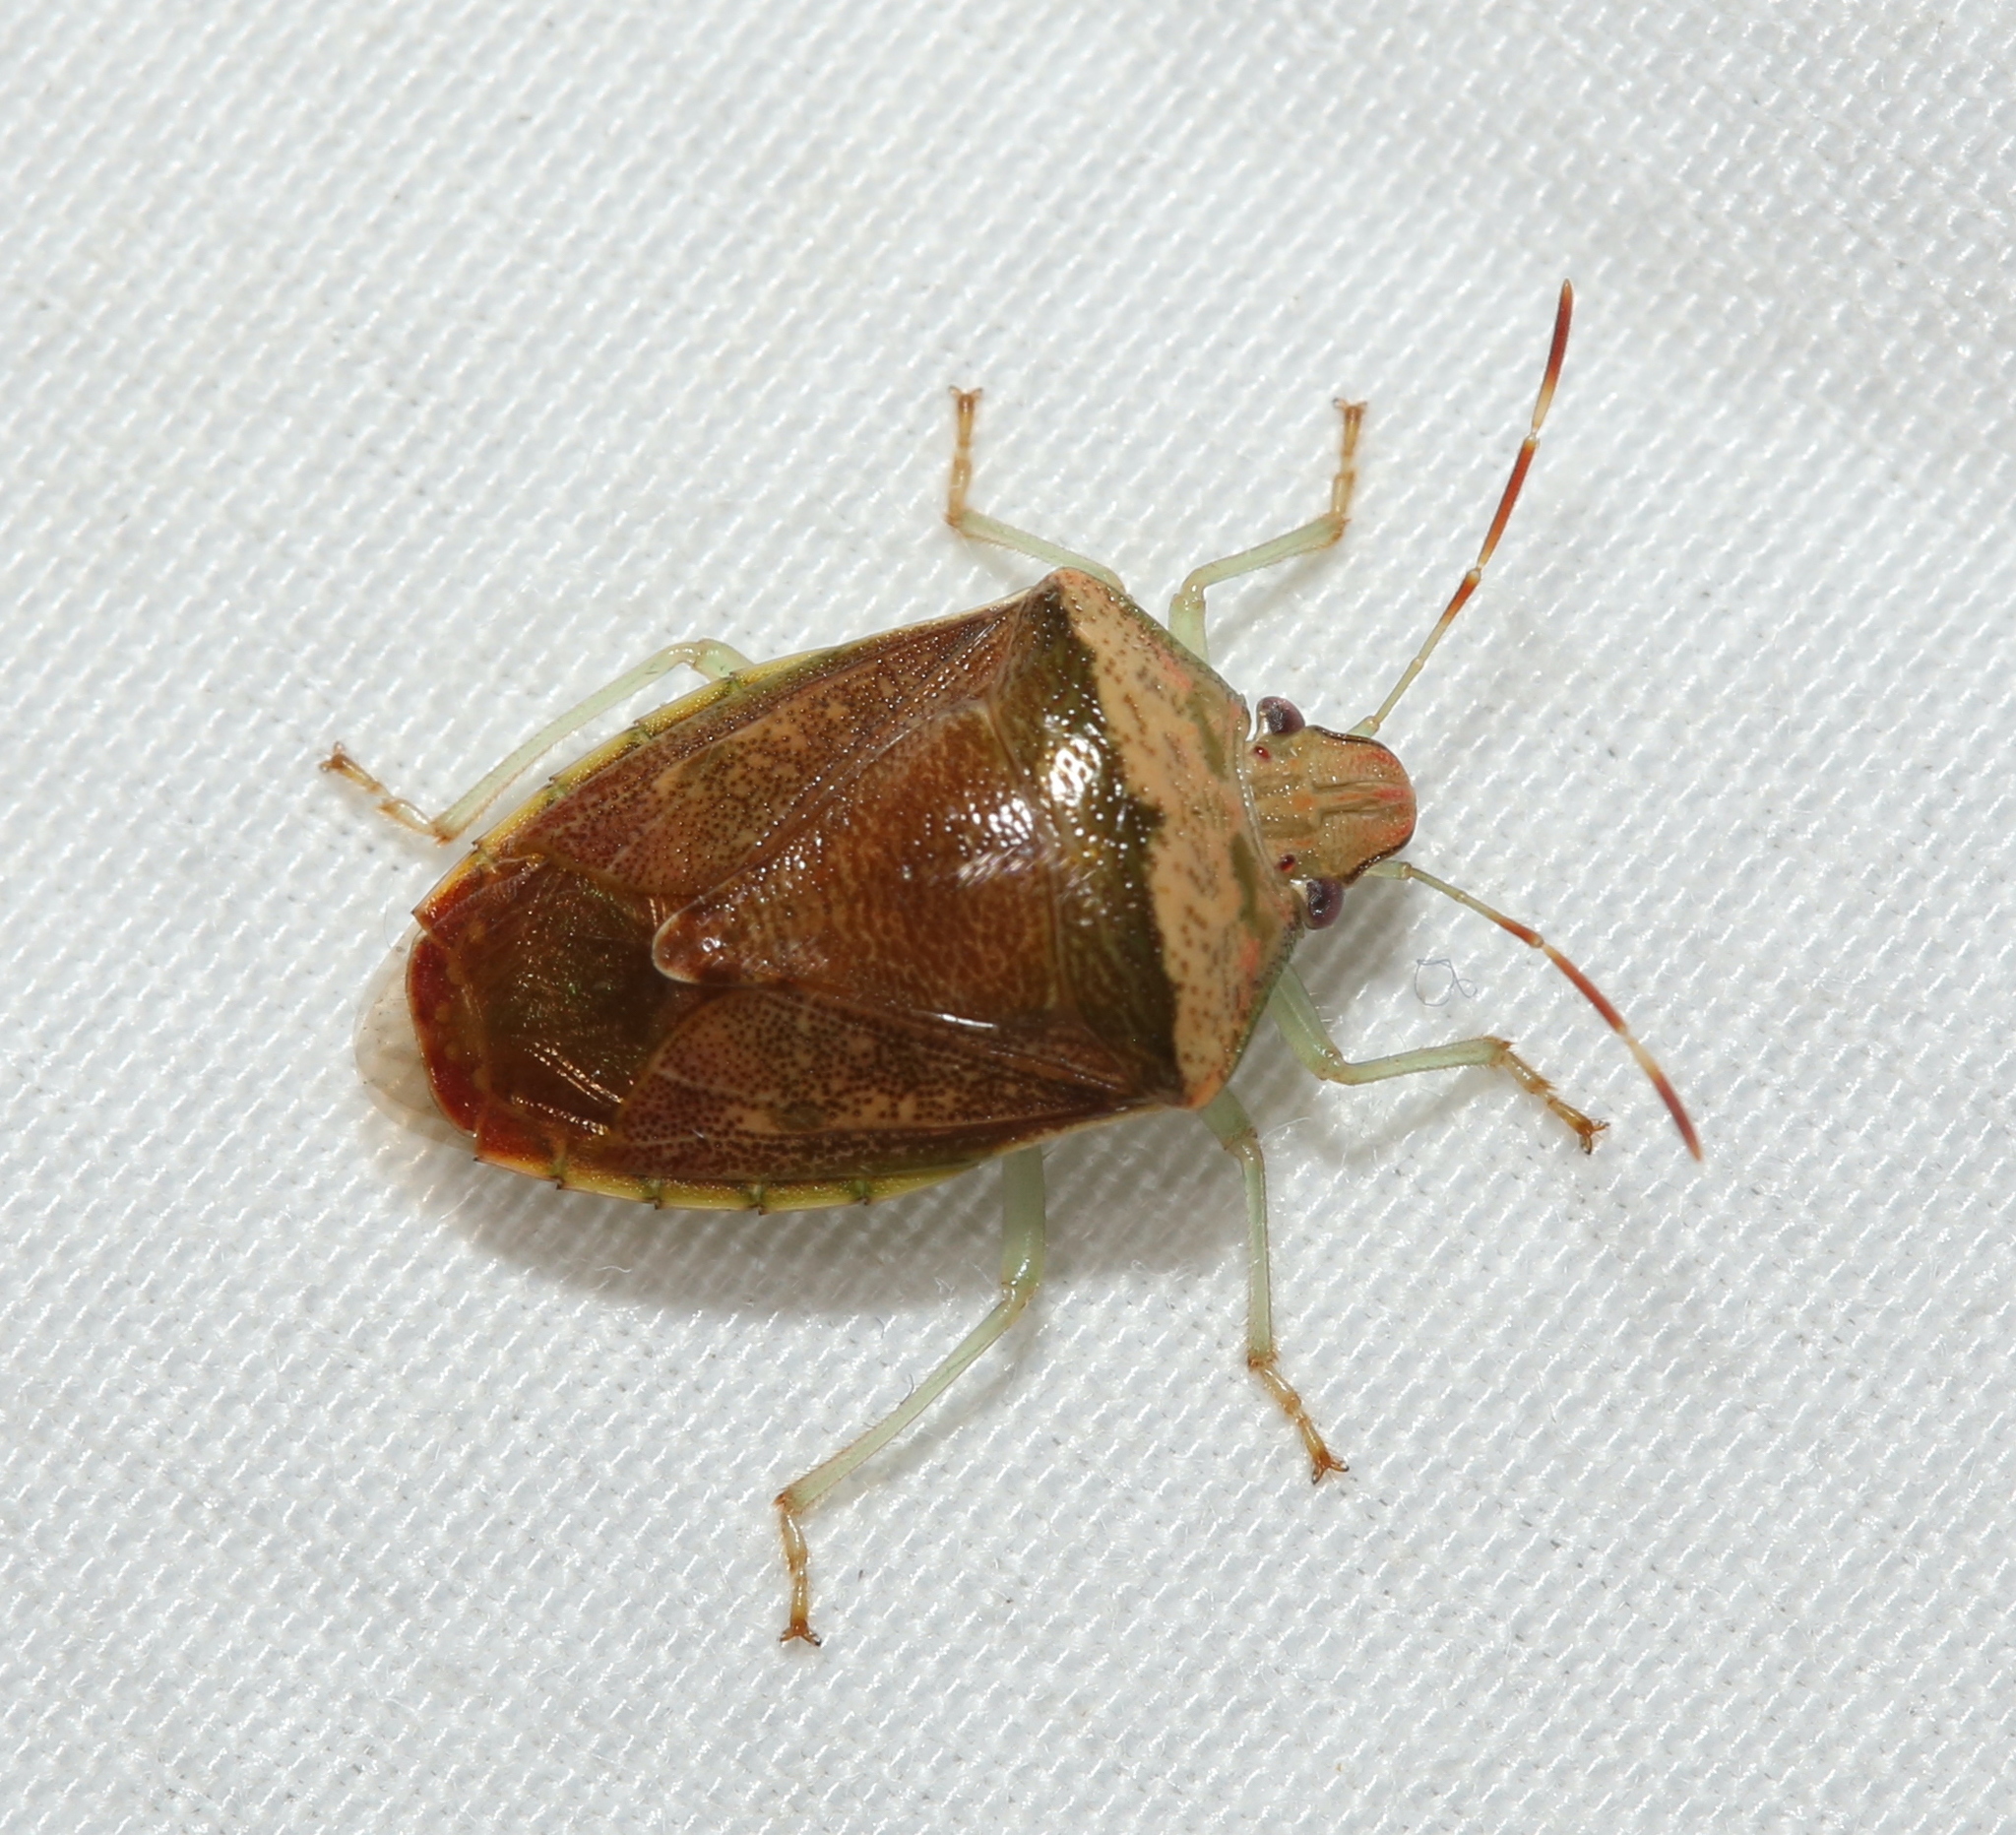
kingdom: Animalia
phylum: Arthropoda
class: Insecta
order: Hemiptera
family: Pentatomidae
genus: Banasa
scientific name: Banasa calva
